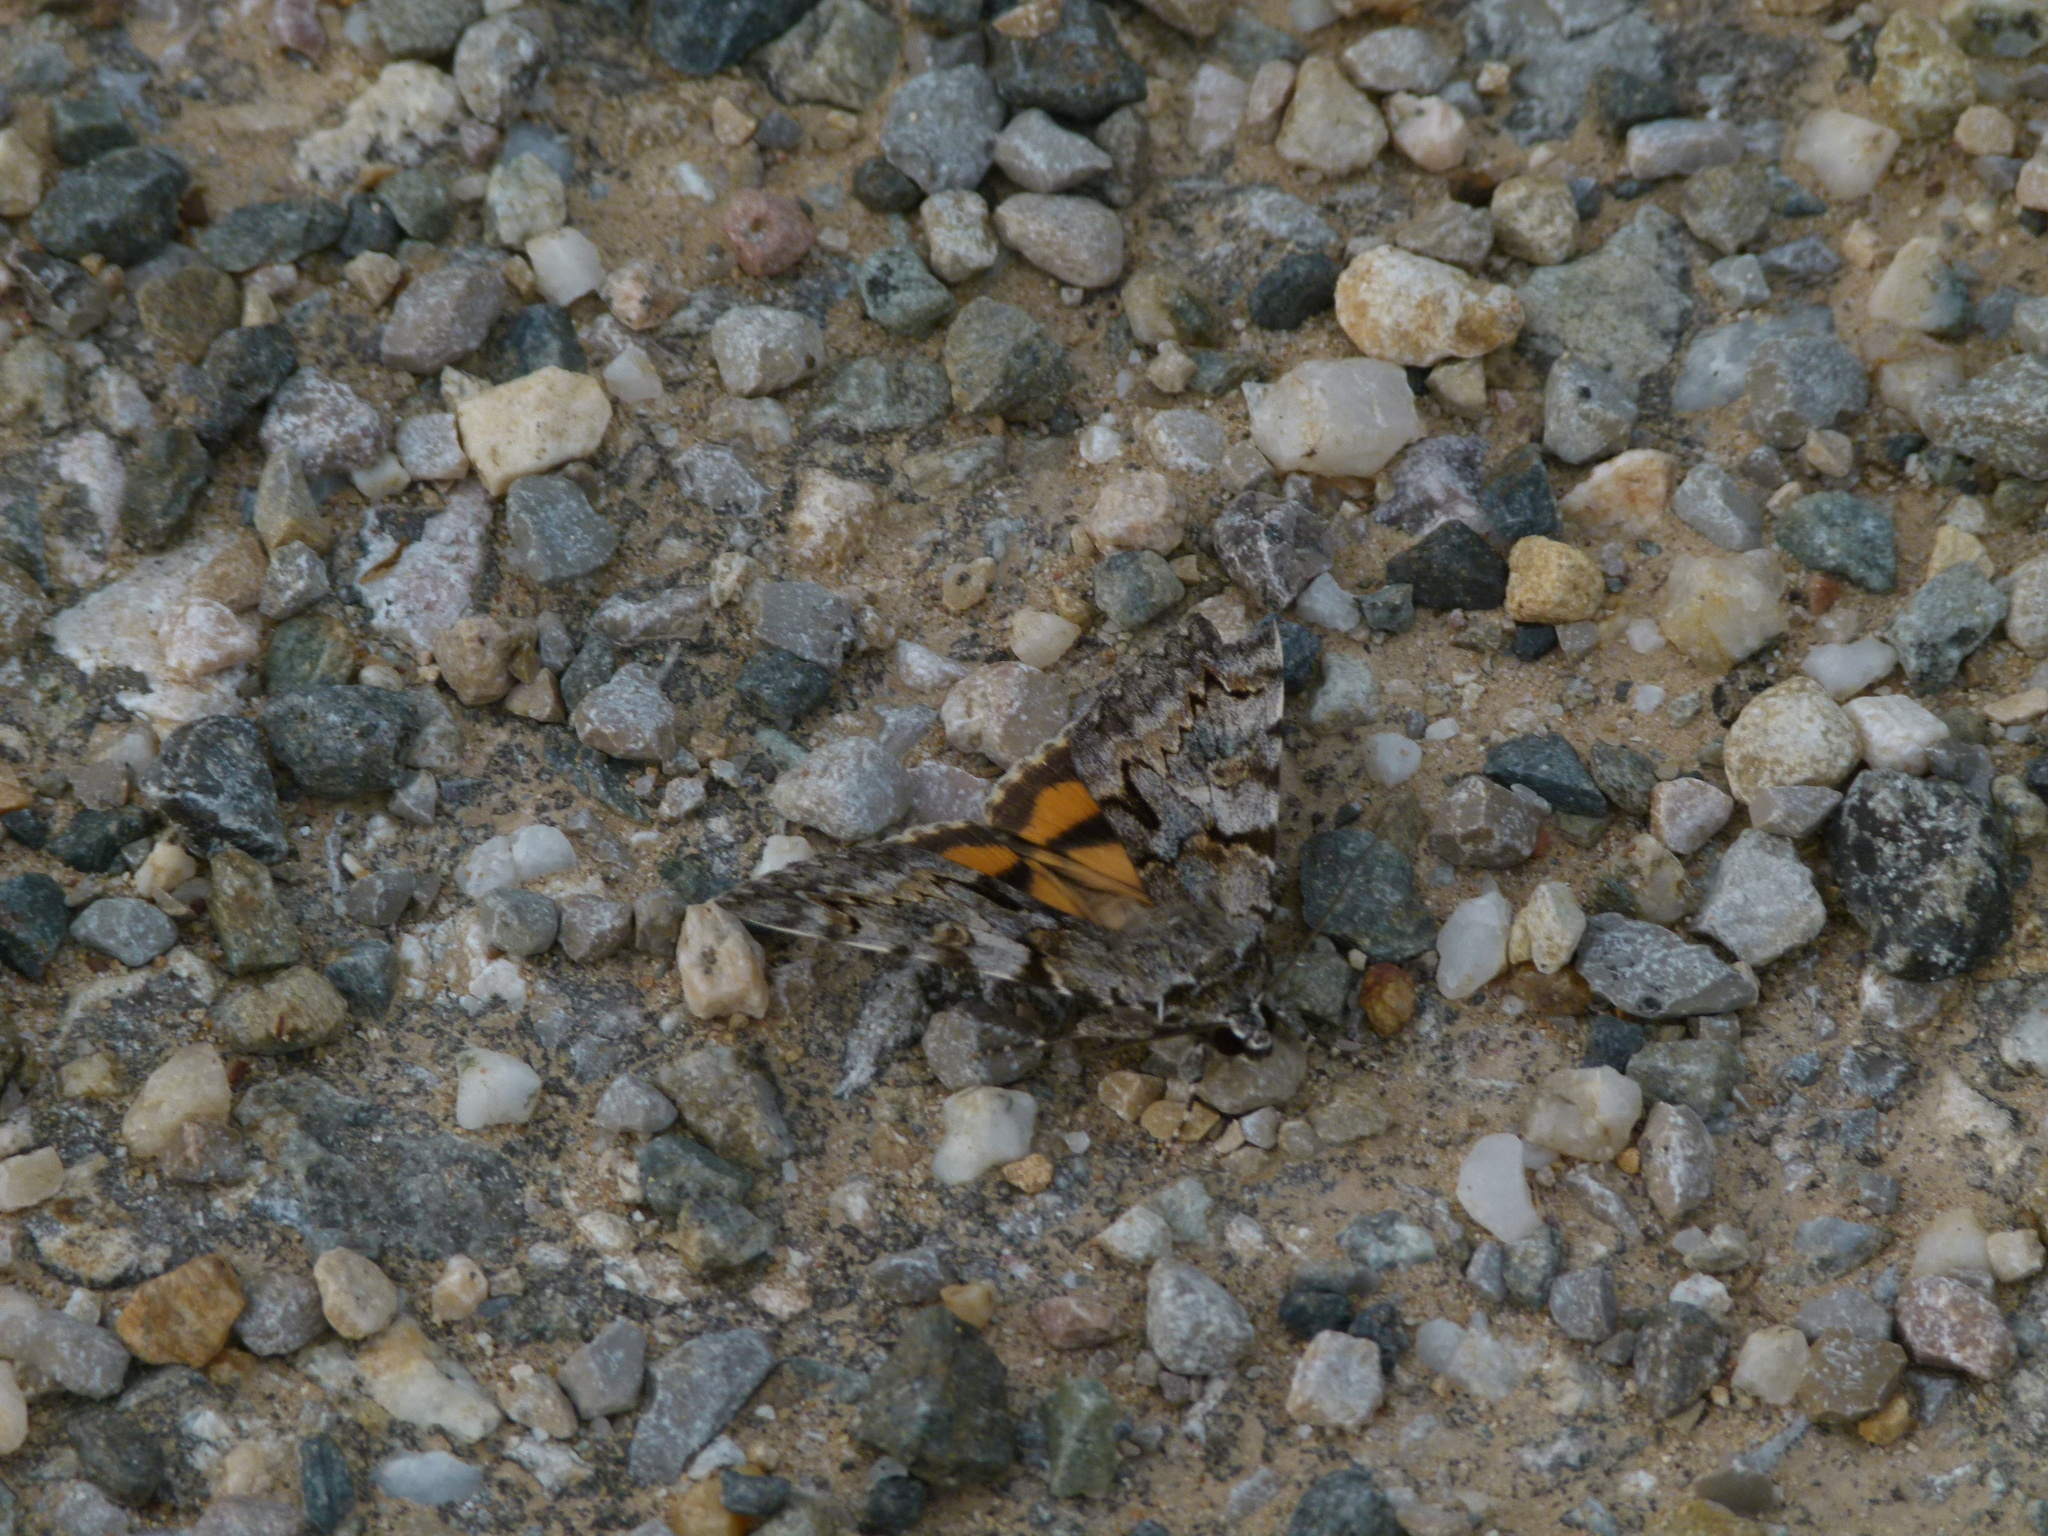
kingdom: Animalia
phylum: Arthropoda
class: Insecta
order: Lepidoptera
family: Erebidae
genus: Catocala
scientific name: Catocala conversa
